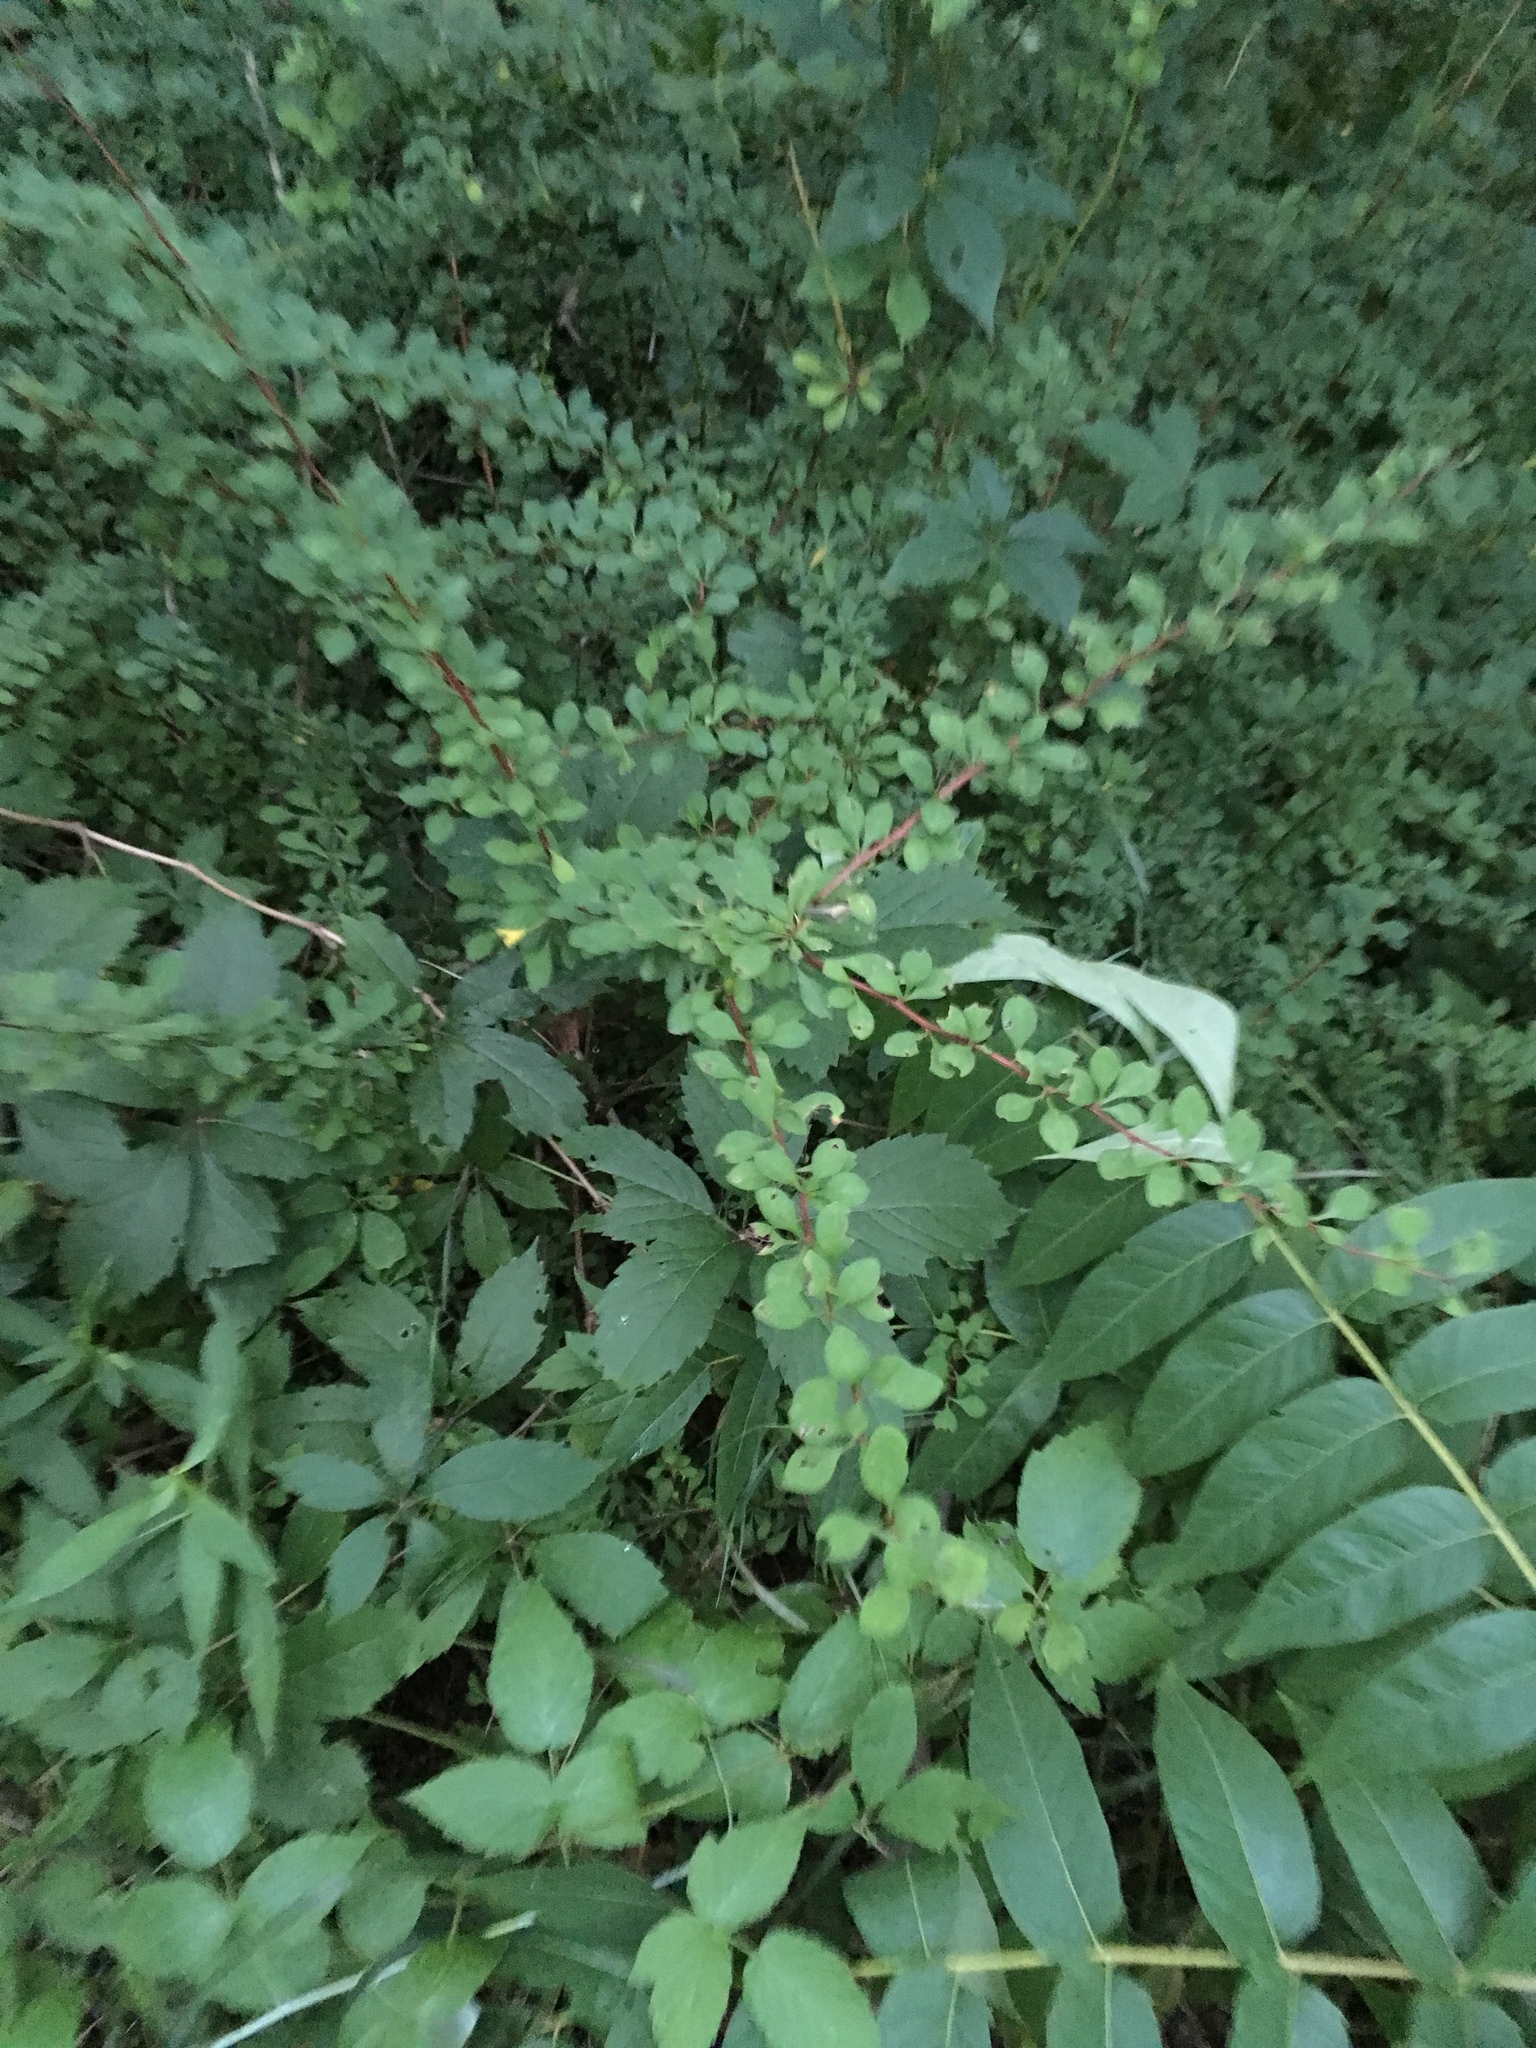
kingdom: Plantae
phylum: Tracheophyta
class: Magnoliopsida
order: Ranunculales
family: Berberidaceae
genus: Berberis
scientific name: Berberis thunbergii
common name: Japanese barberry
